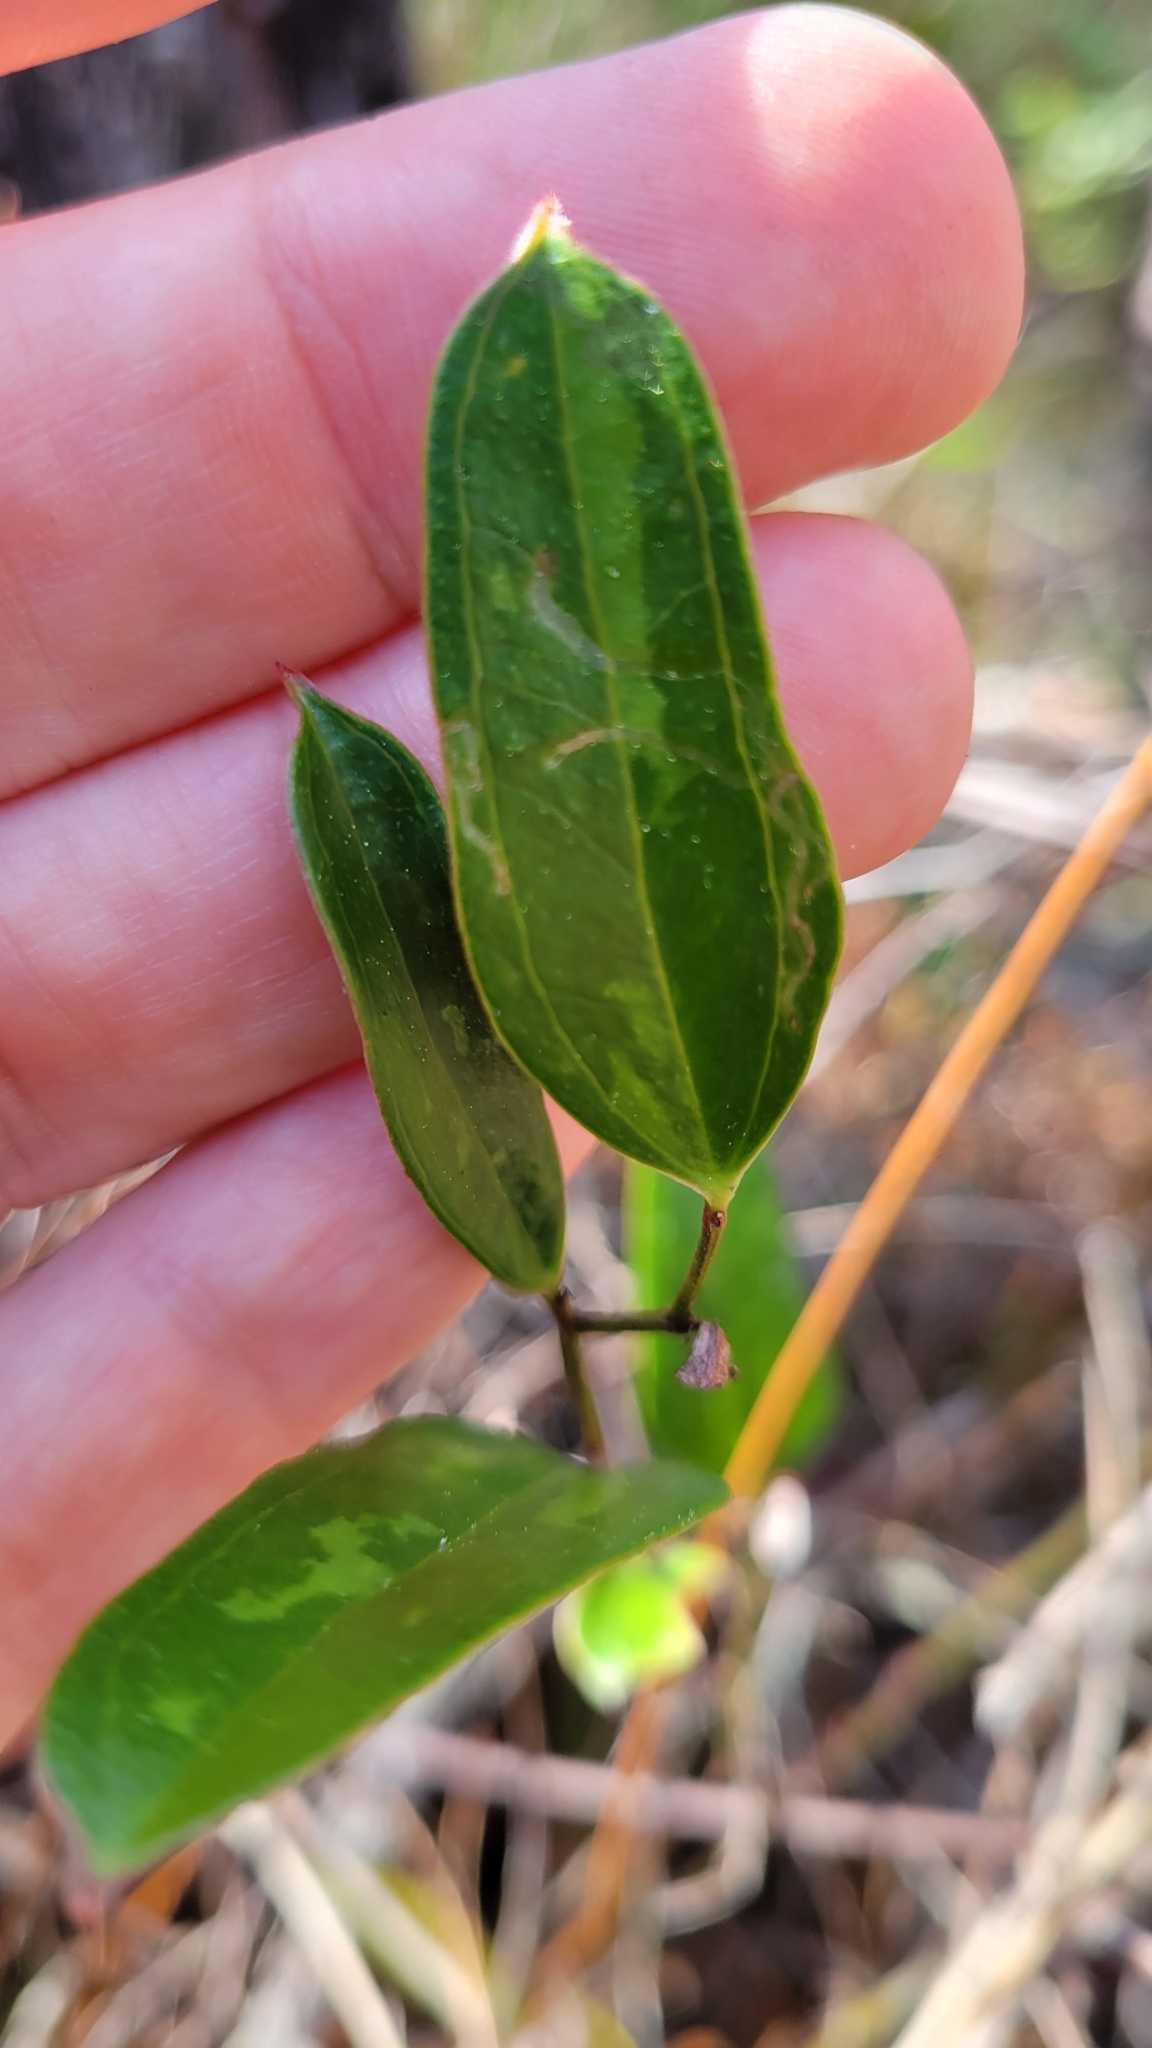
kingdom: Plantae
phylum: Tracheophyta
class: Liliopsida
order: Liliales
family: Smilacaceae
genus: Smilax
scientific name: Smilax auriculata
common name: Wild bamboo
